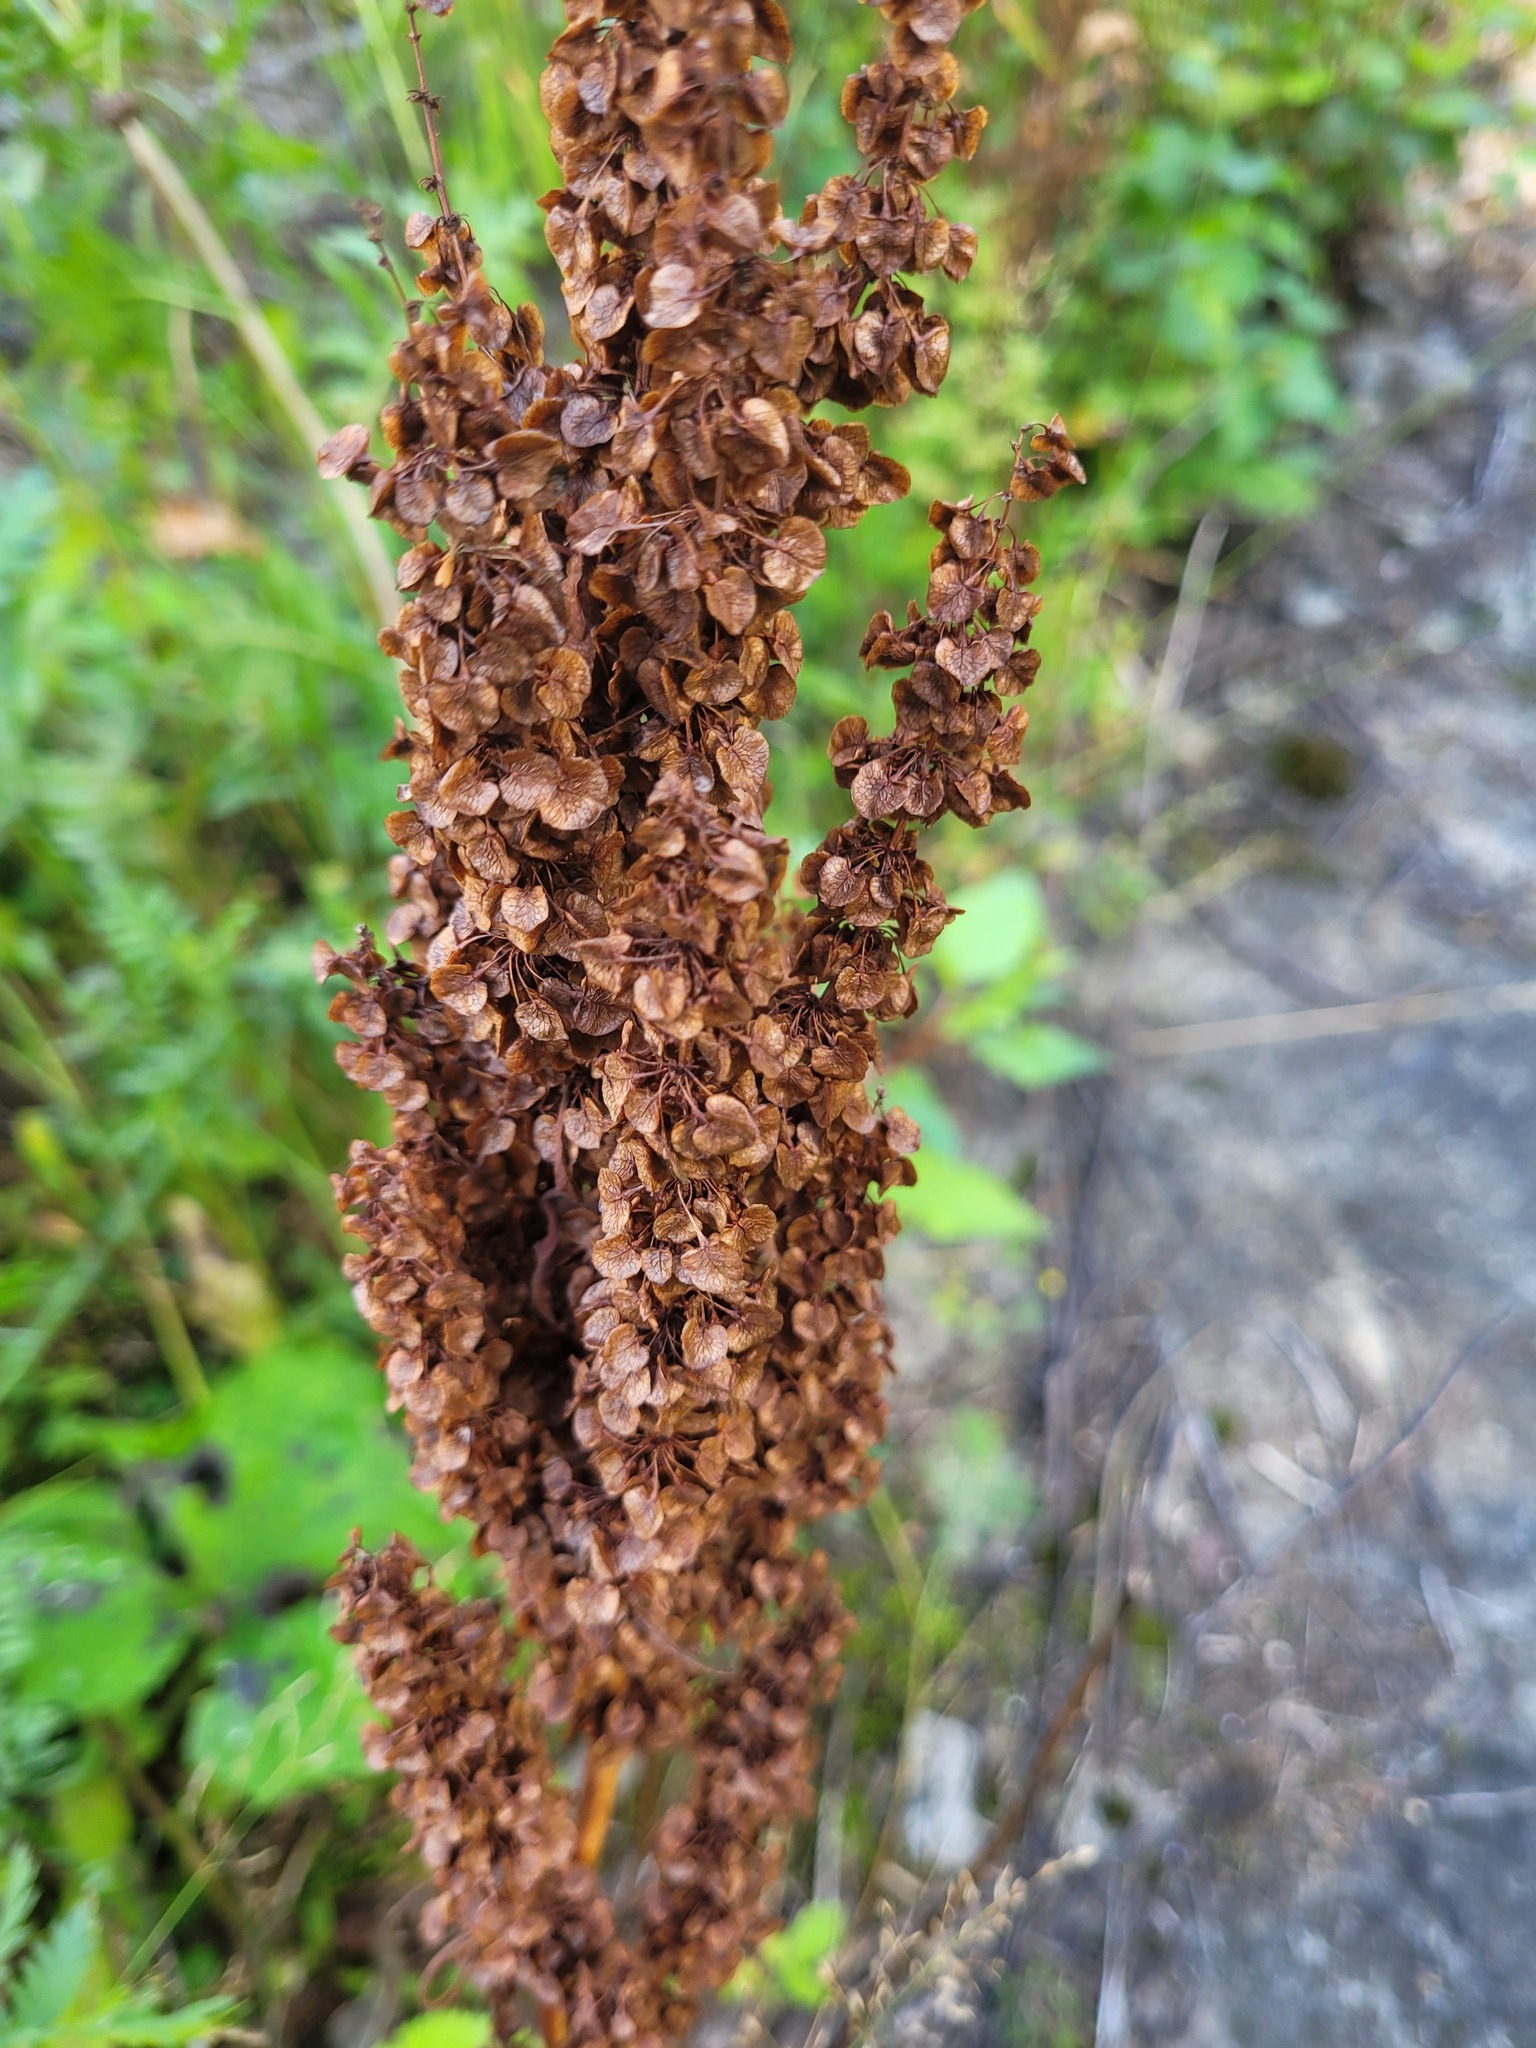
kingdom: Plantae
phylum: Tracheophyta
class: Magnoliopsida
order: Caryophyllales
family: Polygonaceae
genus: Rumex
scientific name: Rumex pseudonatronatus
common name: Field dock
